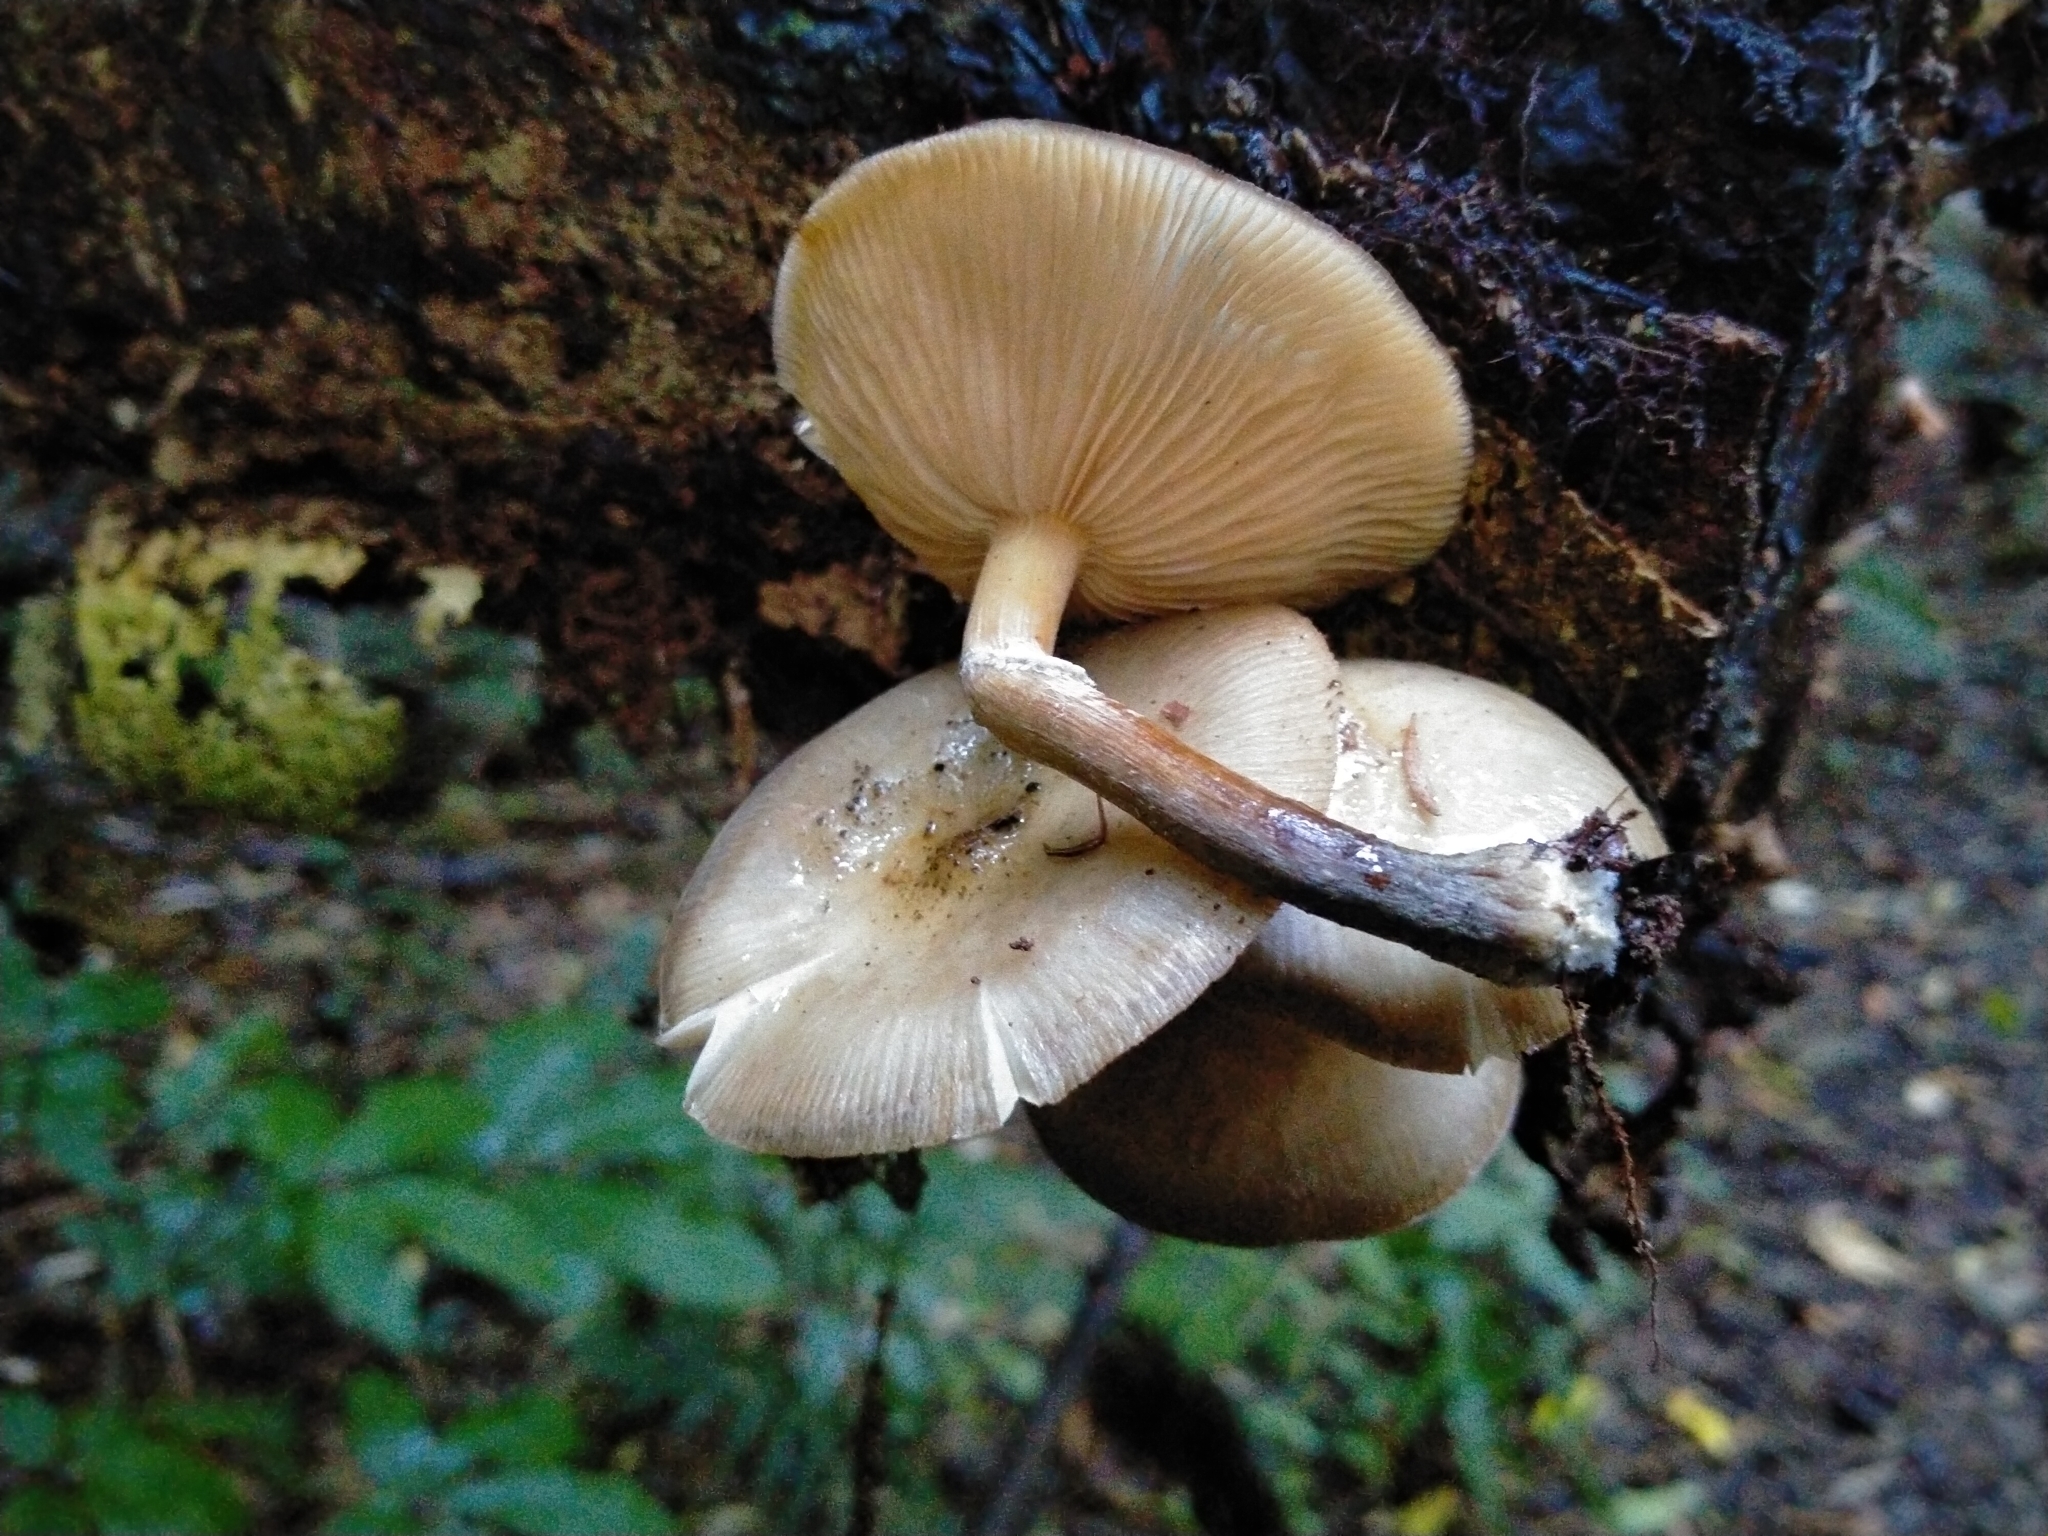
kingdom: Fungi
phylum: Basidiomycota
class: Agaricomycetes
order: Agaricales
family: Physalacriaceae
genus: Armillaria
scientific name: Armillaria novae-zelandiae
